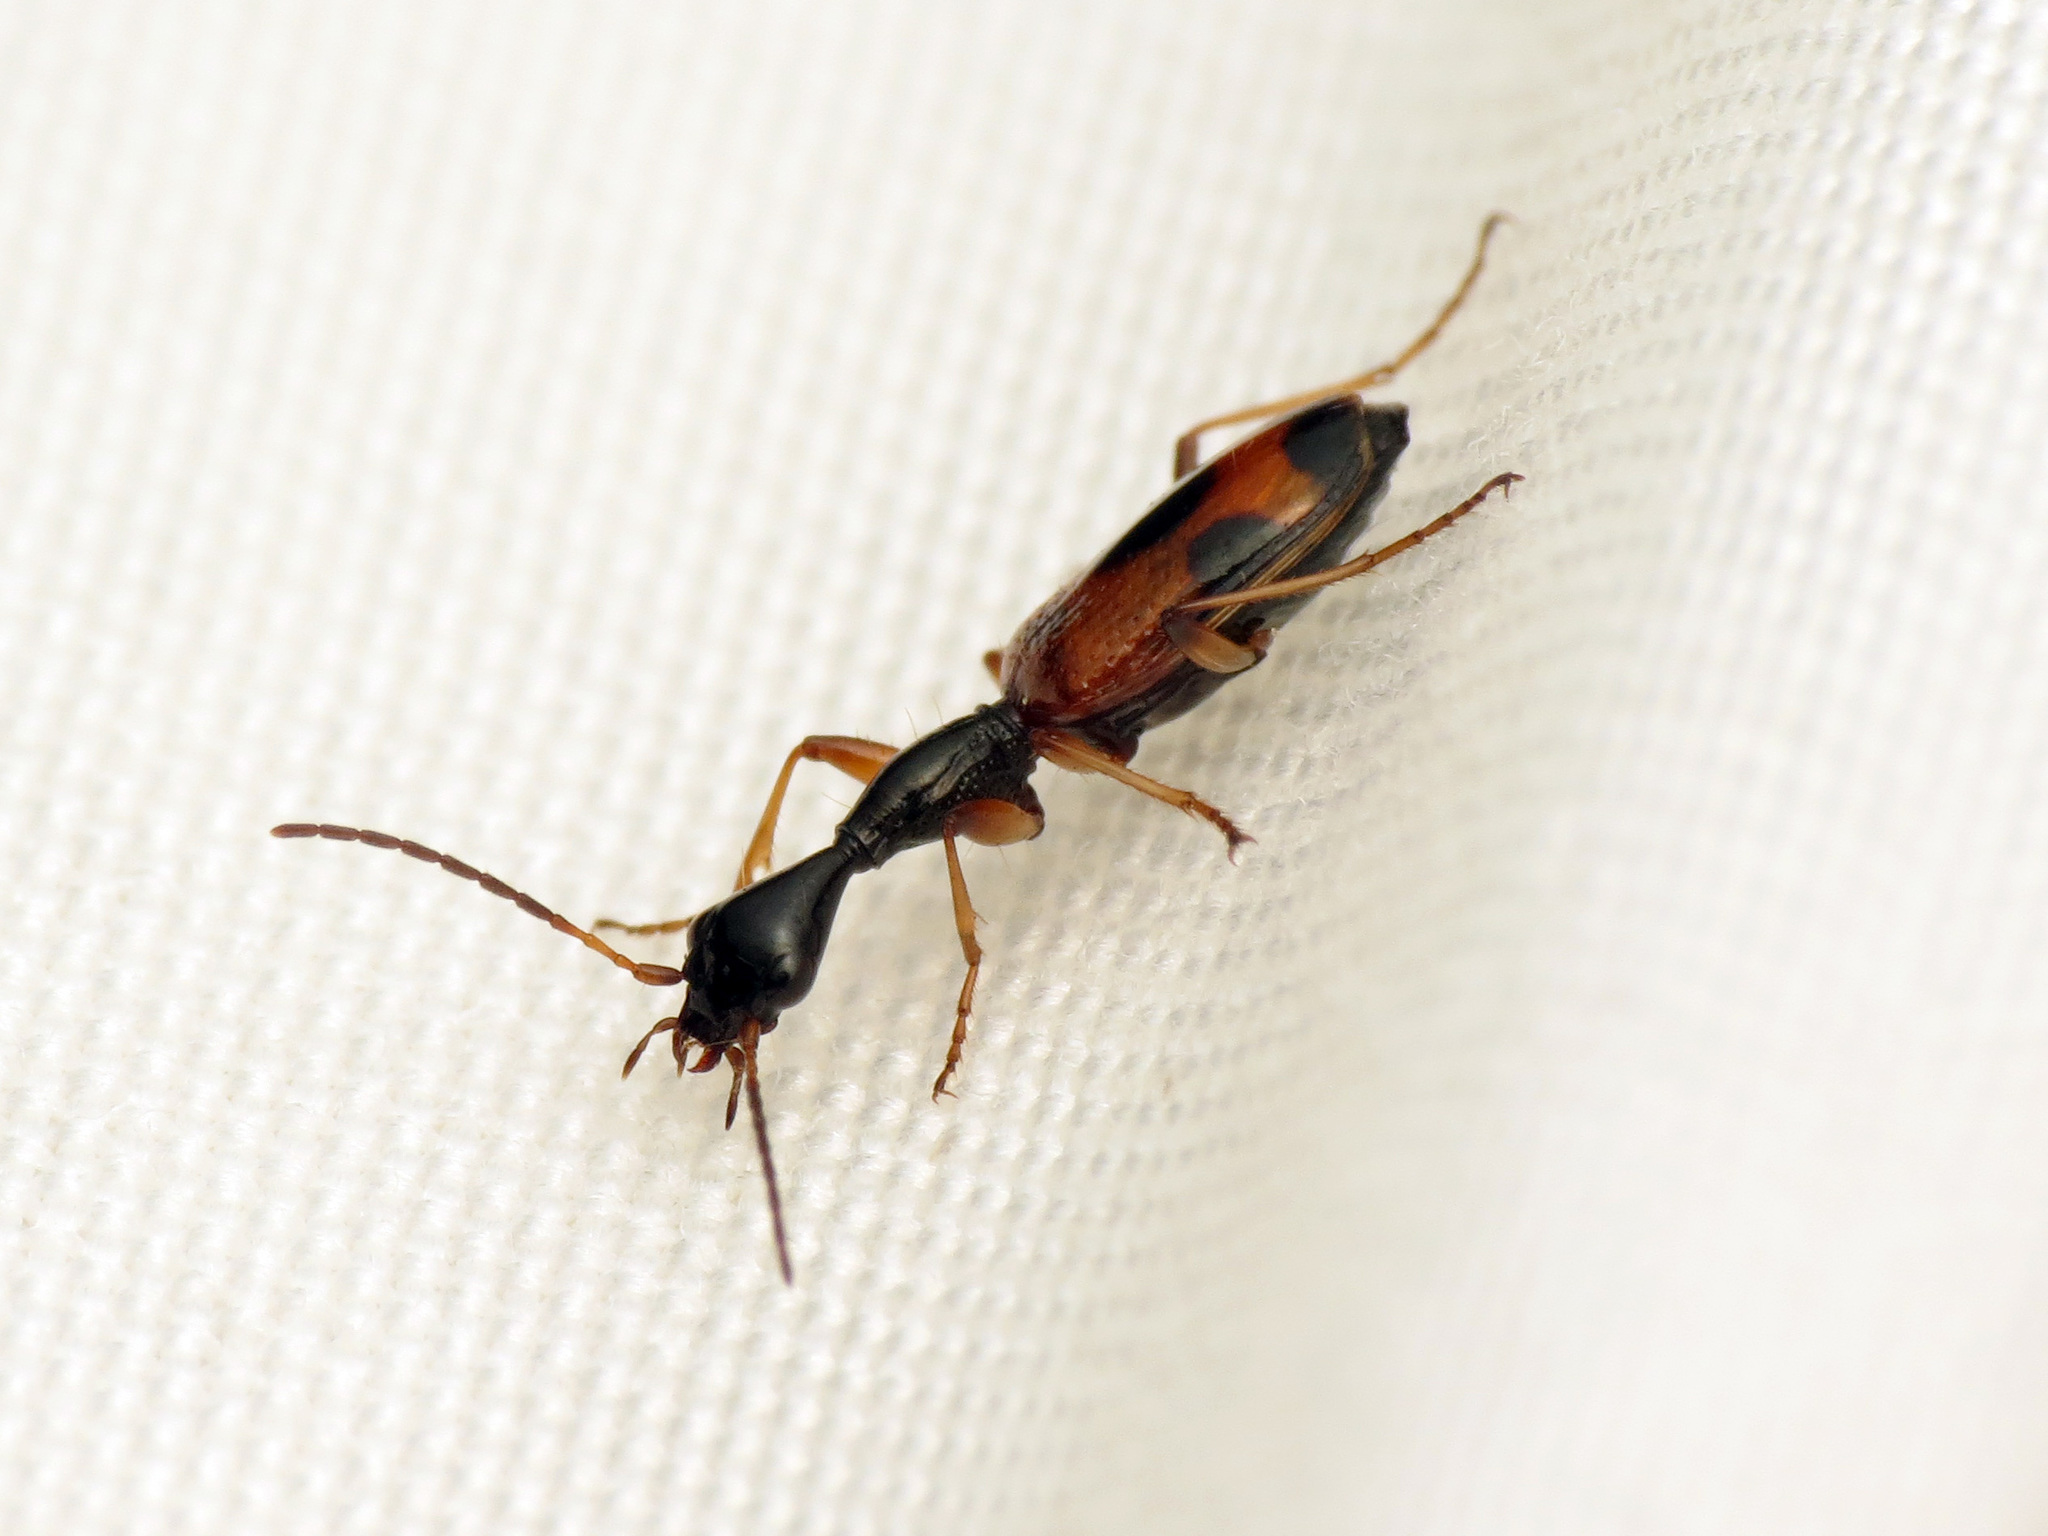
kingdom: Animalia
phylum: Arthropoda
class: Insecta
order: Coleoptera
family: Carabidae
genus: Colliuris
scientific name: Colliuris pensylvanica
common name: Long-necked ground beetle
